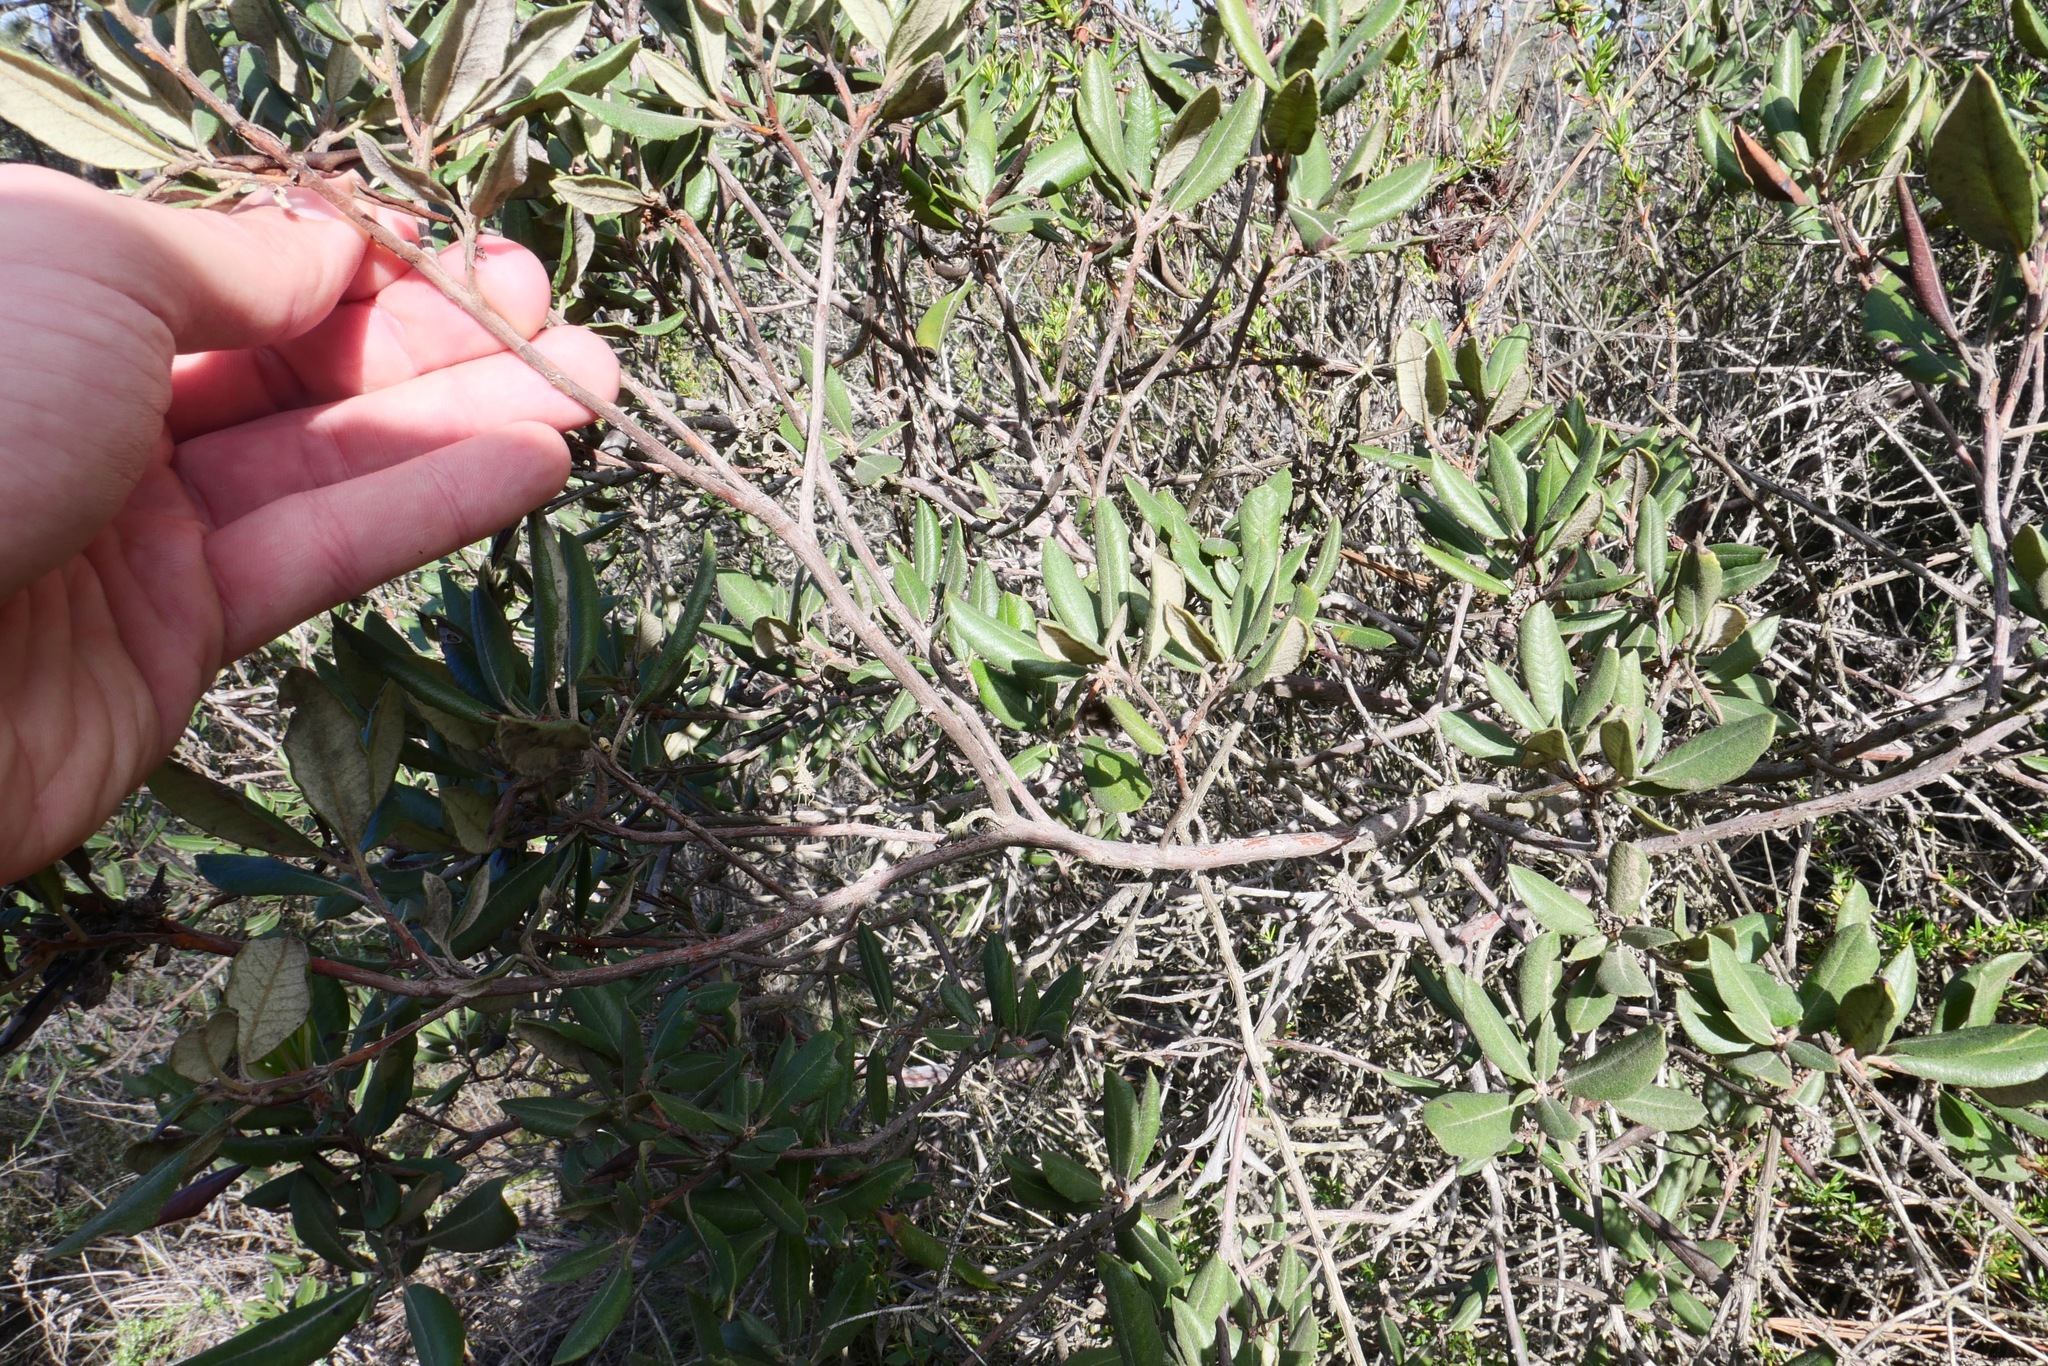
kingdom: Plantae
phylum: Tracheophyta
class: Magnoliopsida
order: Ericales
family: Ericaceae
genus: Arctostaphylos
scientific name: Arctostaphylos bicolor
